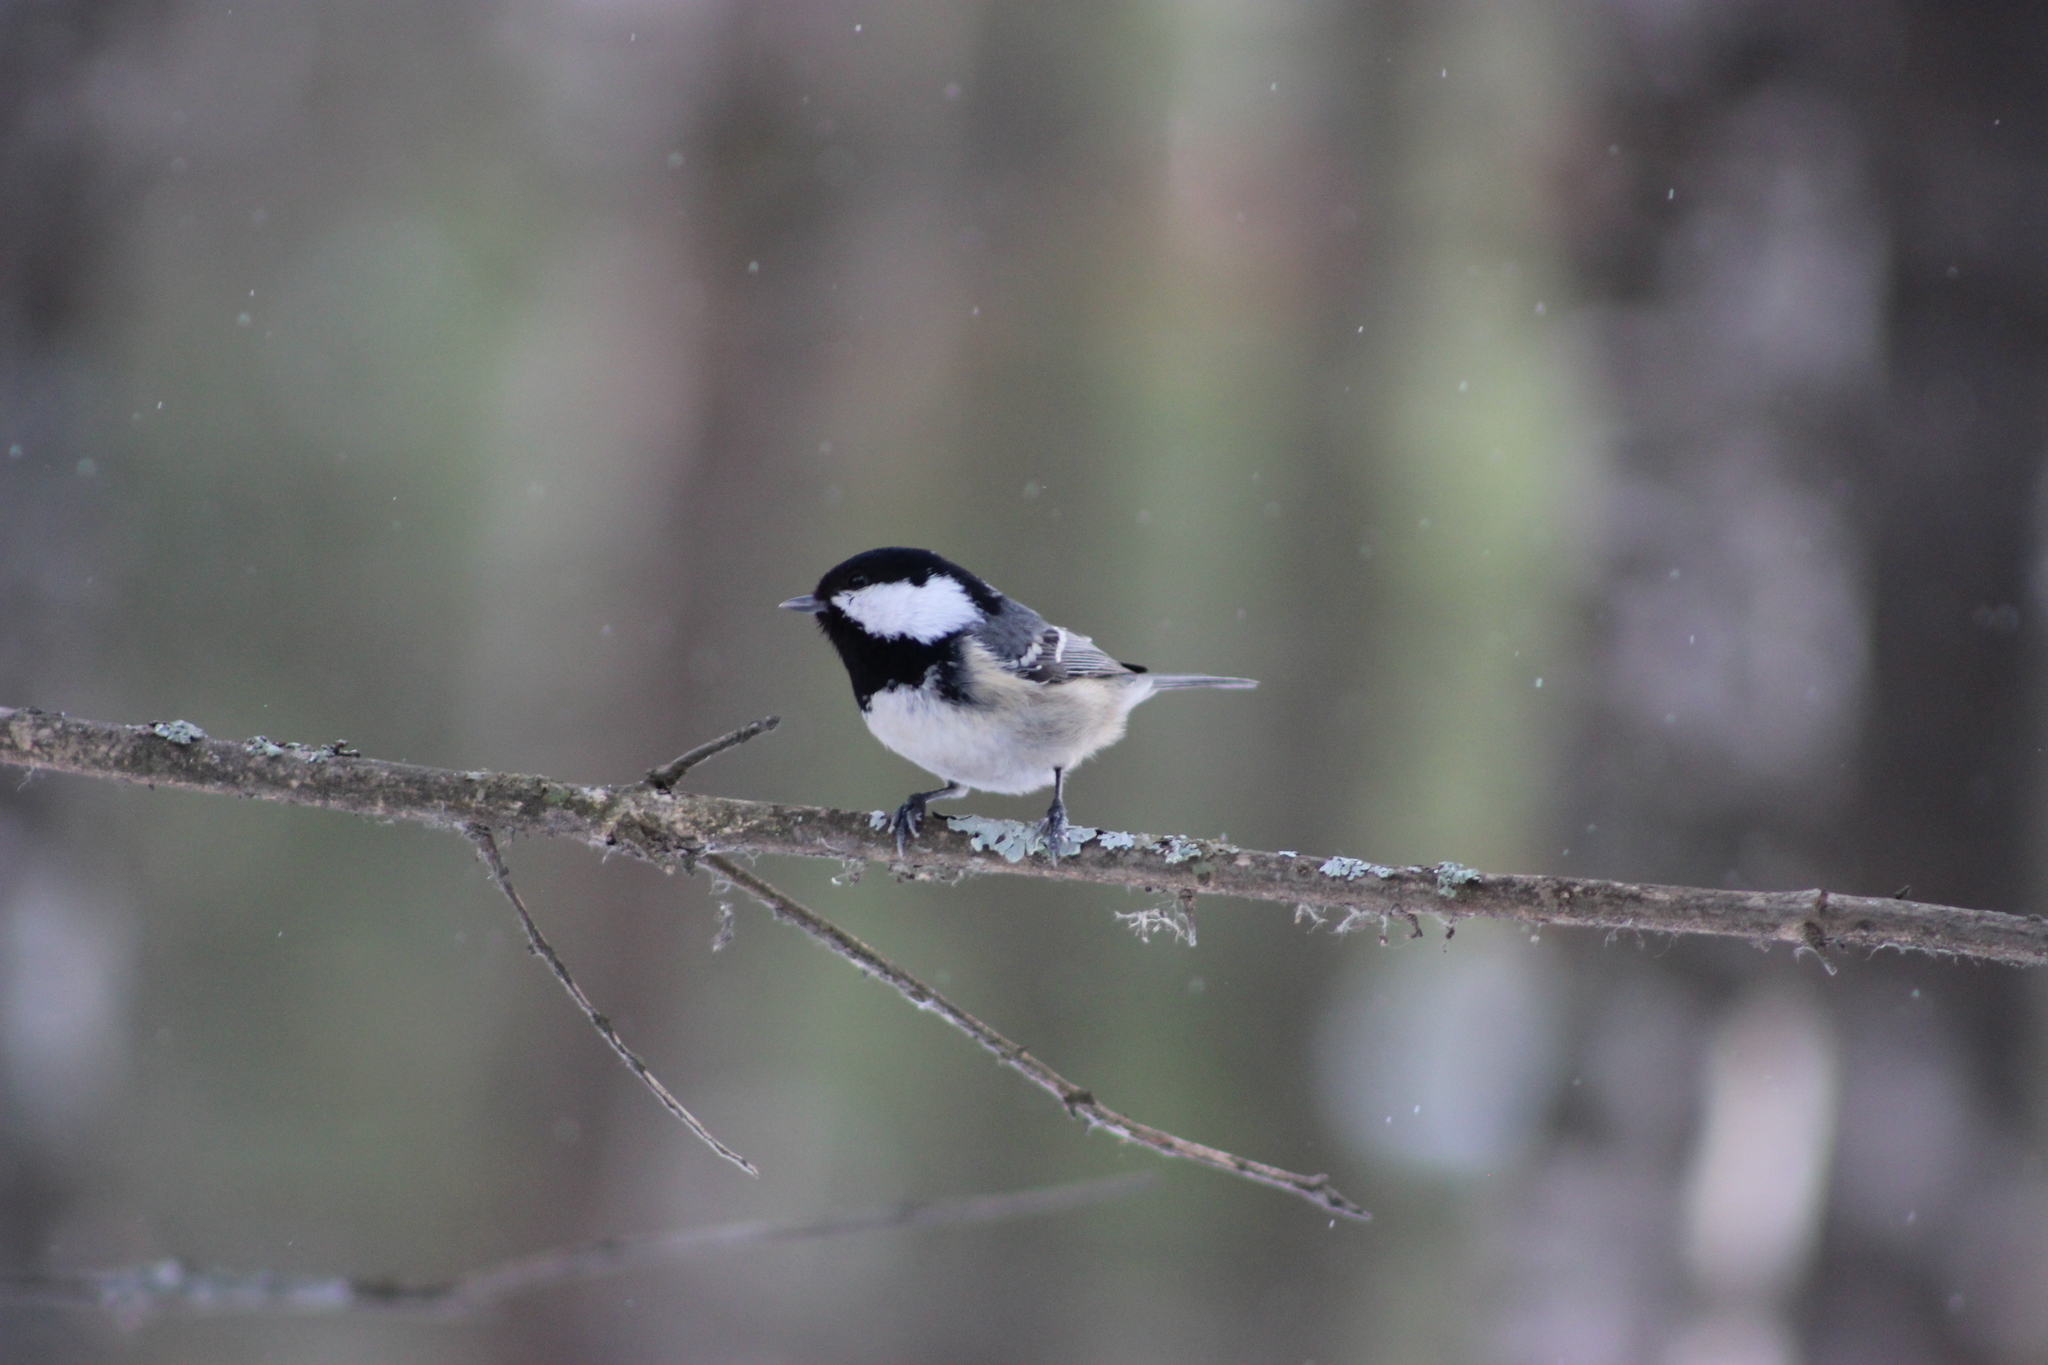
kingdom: Animalia
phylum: Chordata
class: Aves
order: Passeriformes
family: Paridae
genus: Periparus
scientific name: Periparus ater
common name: Coal tit
